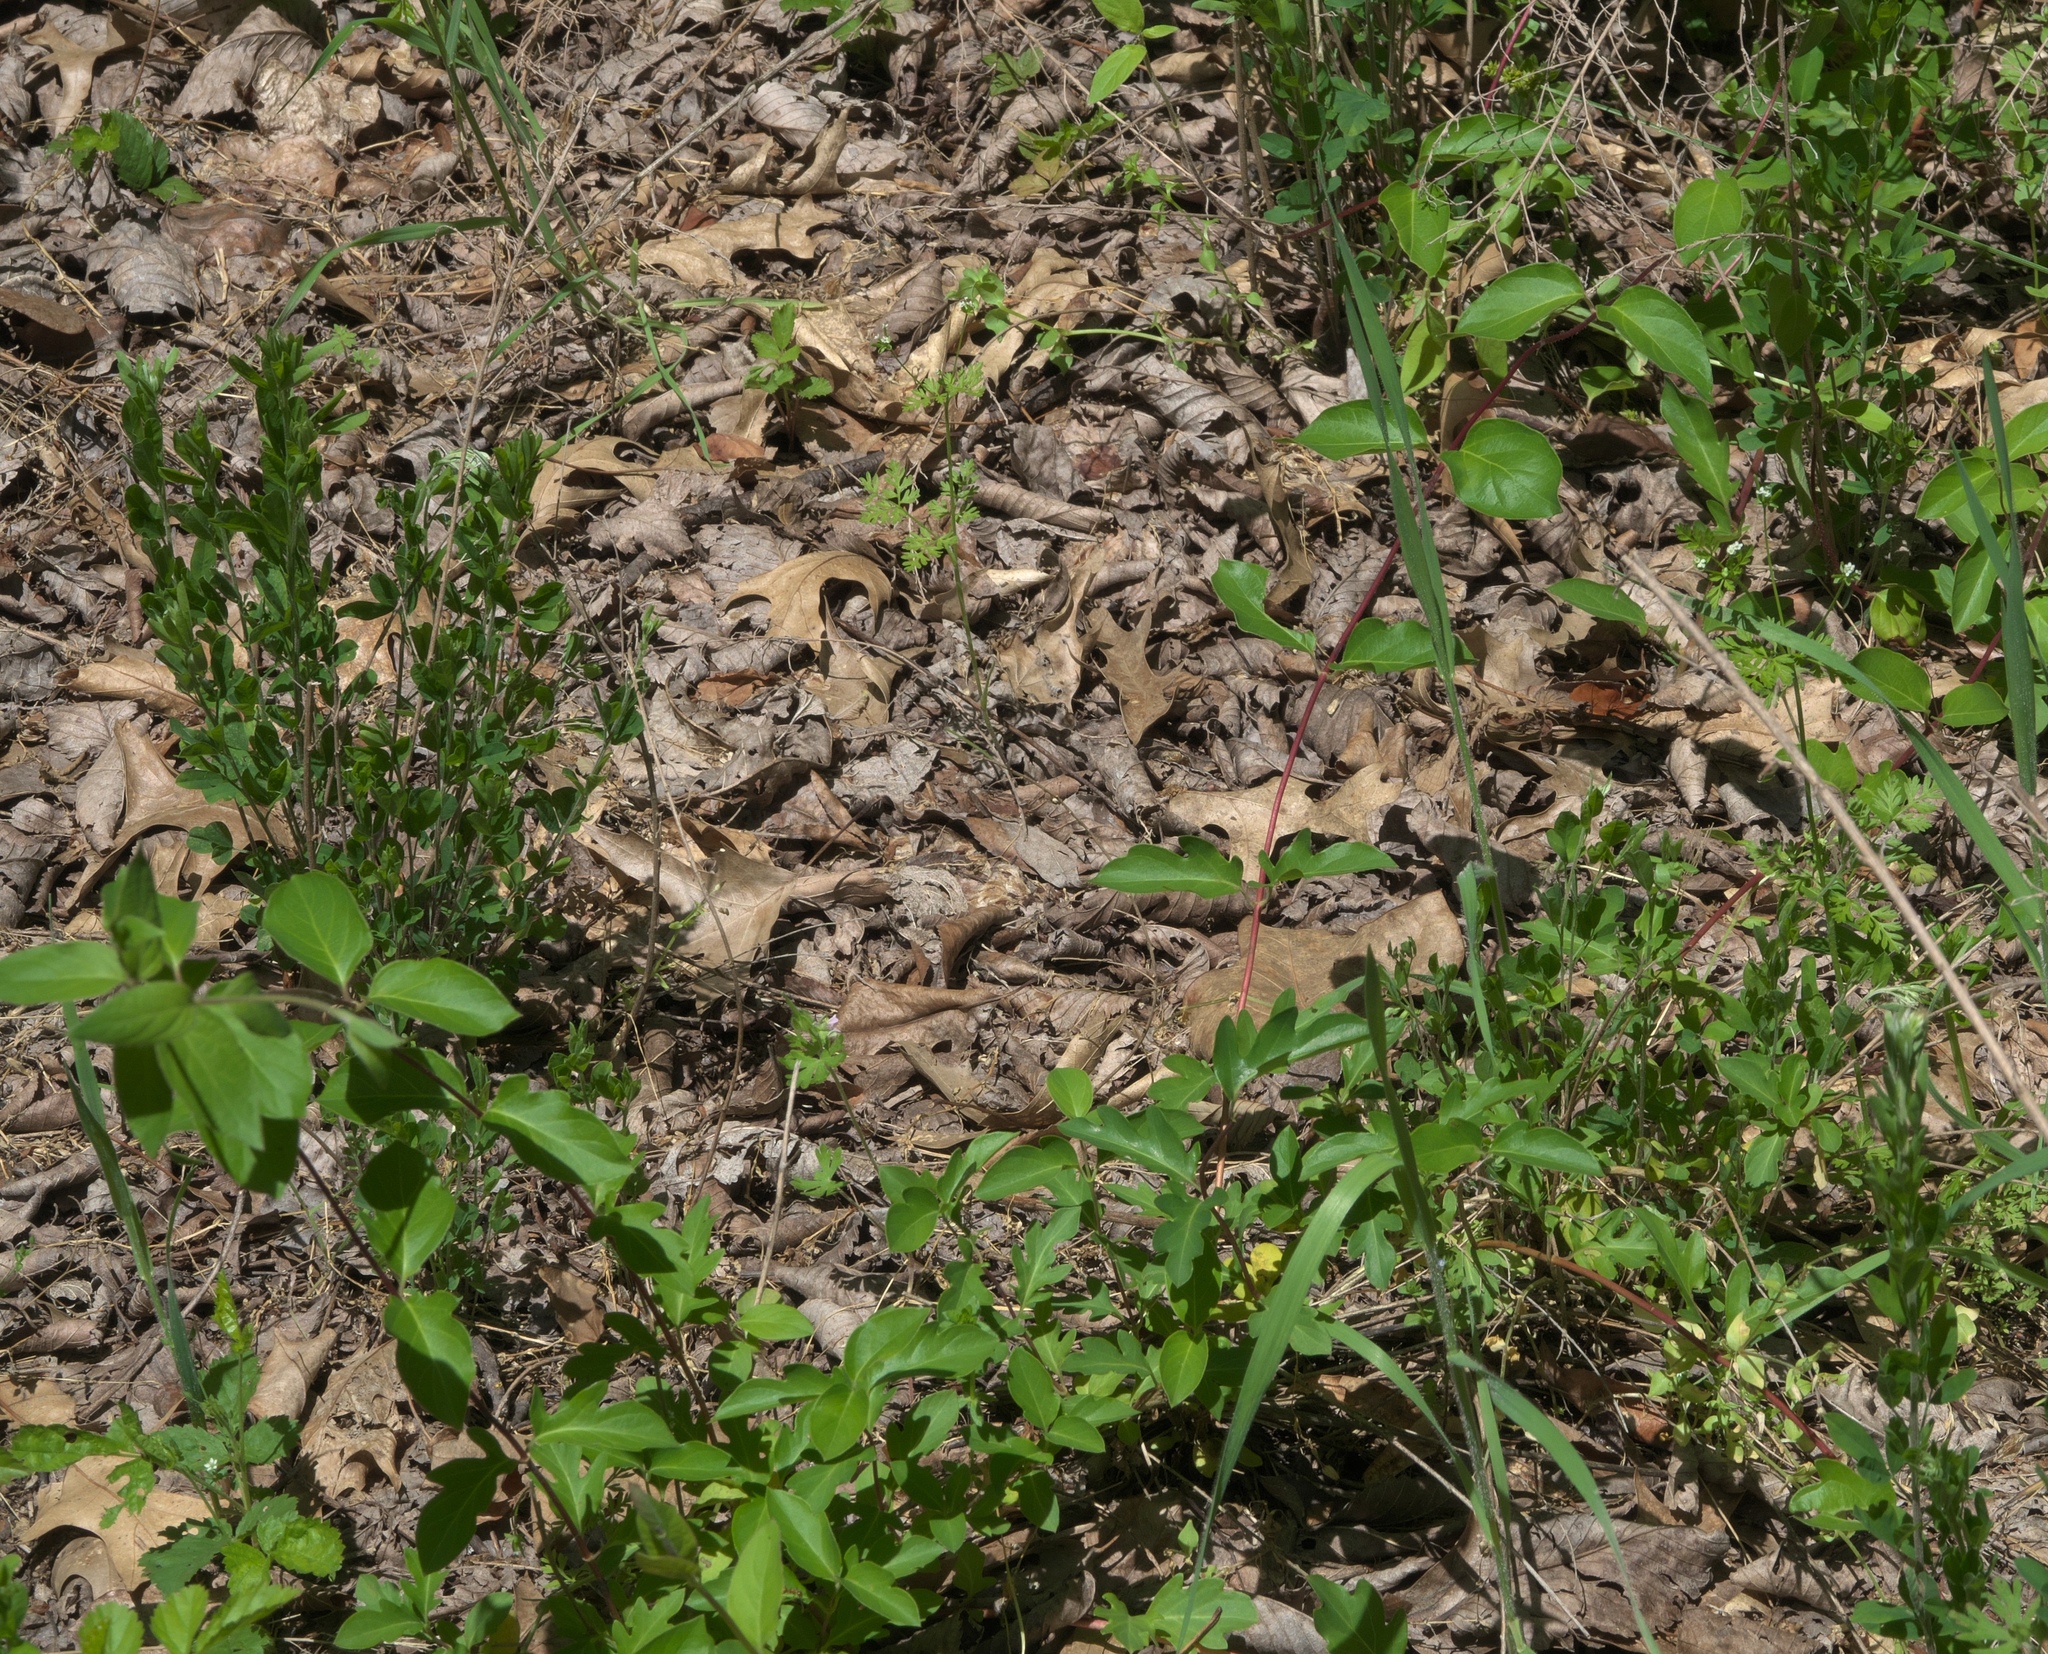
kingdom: Plantae
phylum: Tracheophyta
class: Magnoliopsida
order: Dipsacales
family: Caprifoliaceae
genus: Lonicera
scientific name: Lonicera japonica
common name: Japanese honeysuckle
